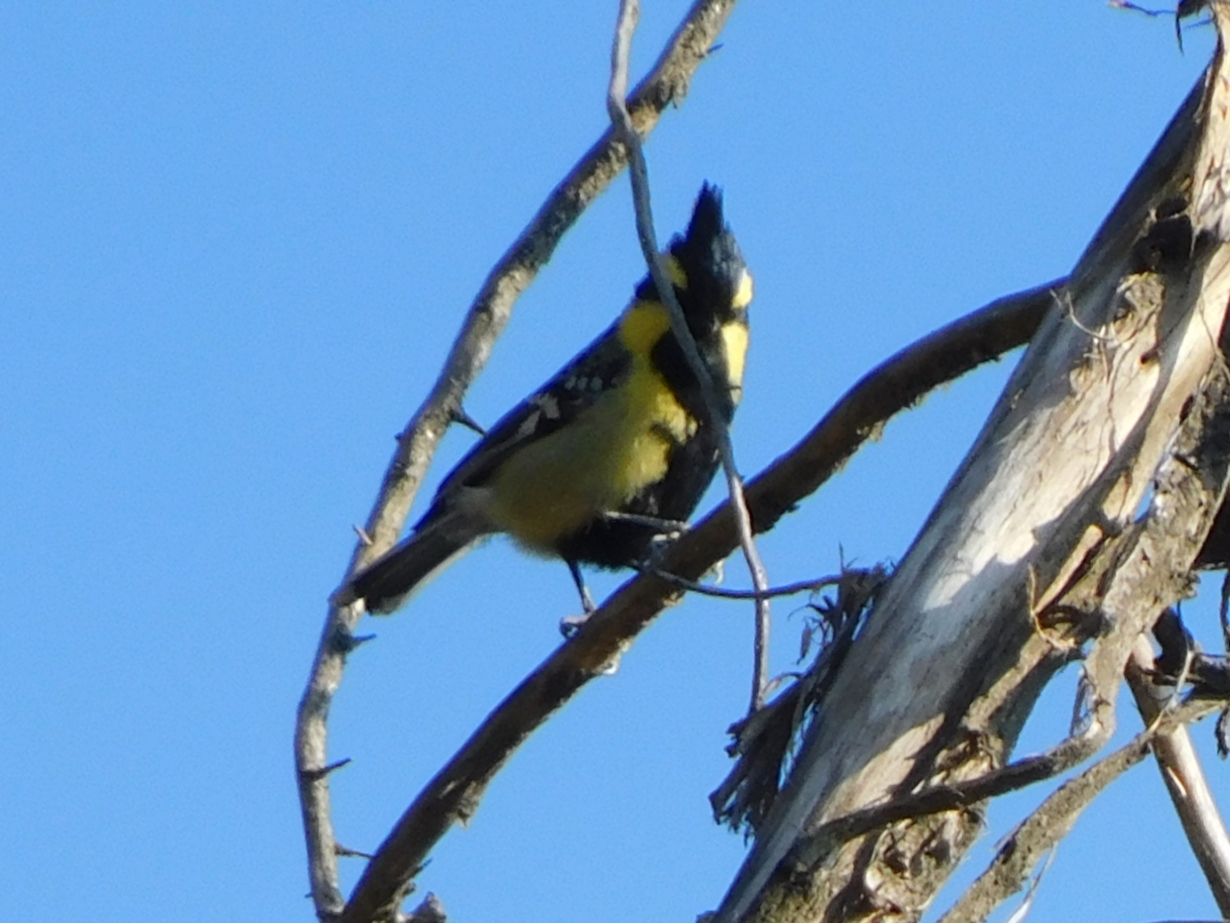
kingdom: Animalia
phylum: Chordata
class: Aves
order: Passeriformes
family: Paridae
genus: Parus
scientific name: Parus xanthogenys
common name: Black-lored tit
